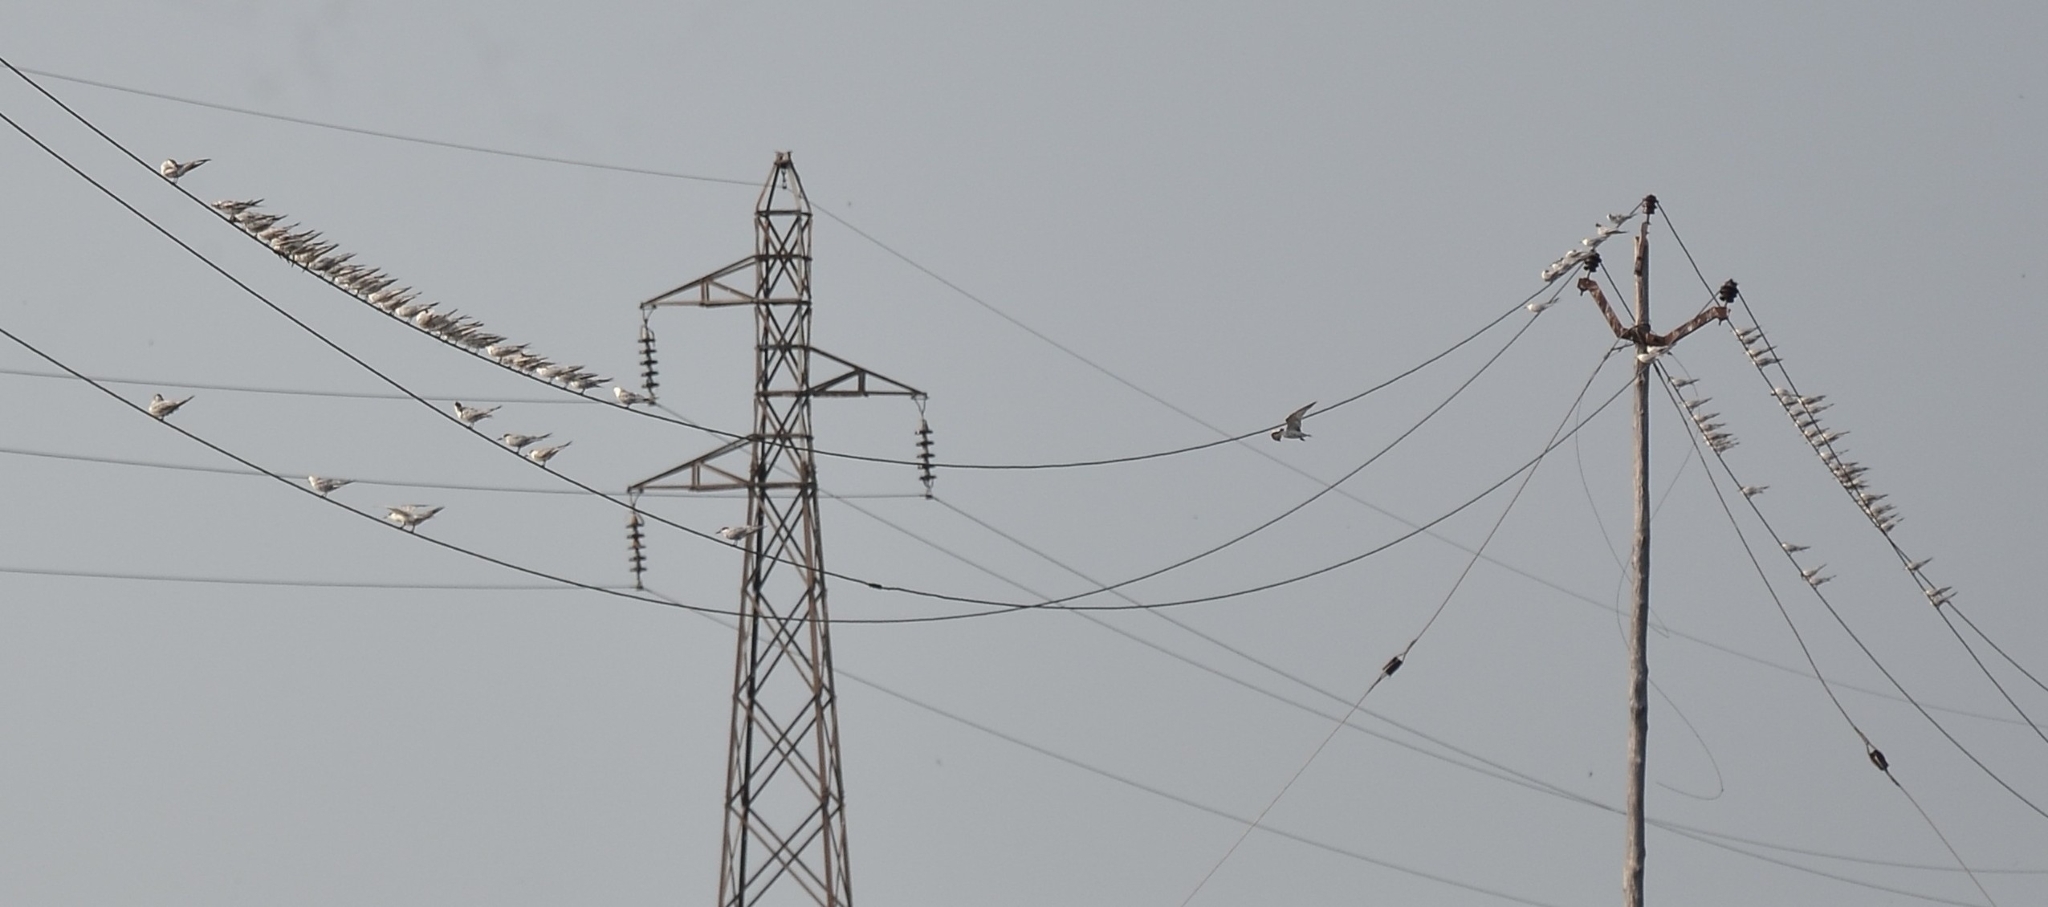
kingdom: Animalia
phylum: Chordata
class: Aves
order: Charadriiformes
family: Laridae
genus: Chlidonias
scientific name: Chlidonias hybrida
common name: Whiskered tern
